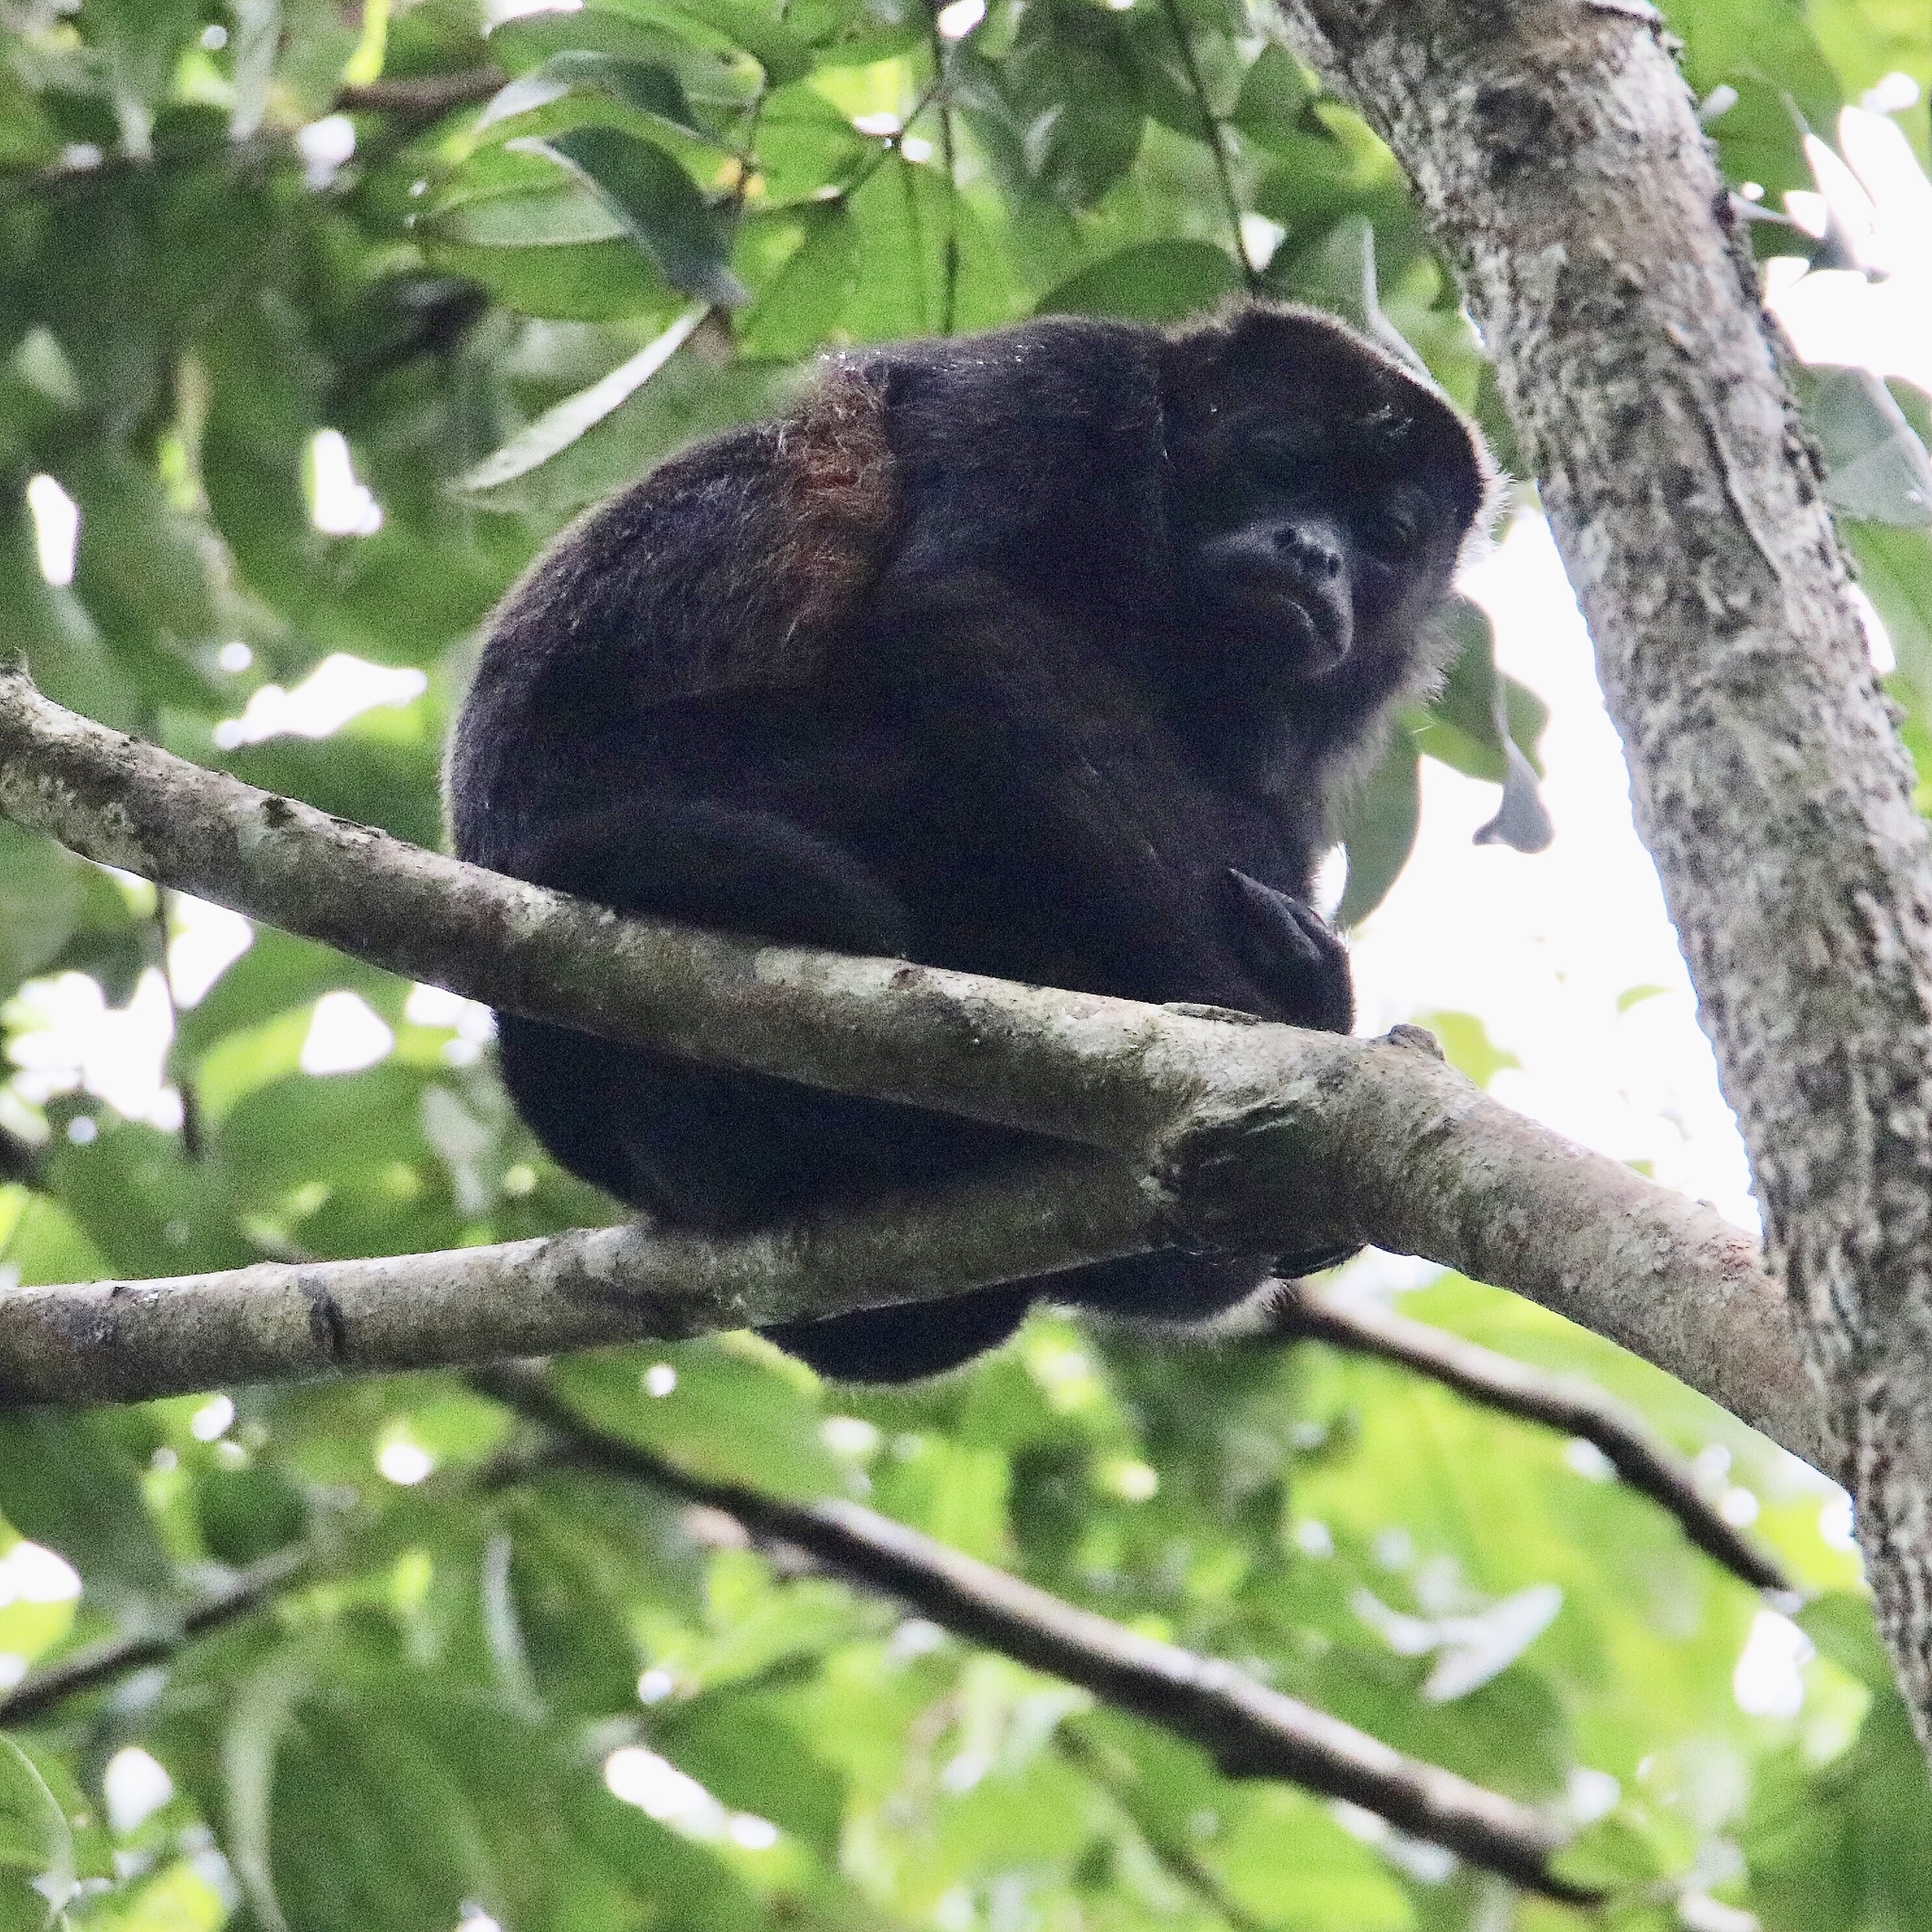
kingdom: Animalia
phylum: Chordata
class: Mammalia
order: Primates
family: Atelidae
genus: Alouatta
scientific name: Alouatta palliata
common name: Mantled howler
